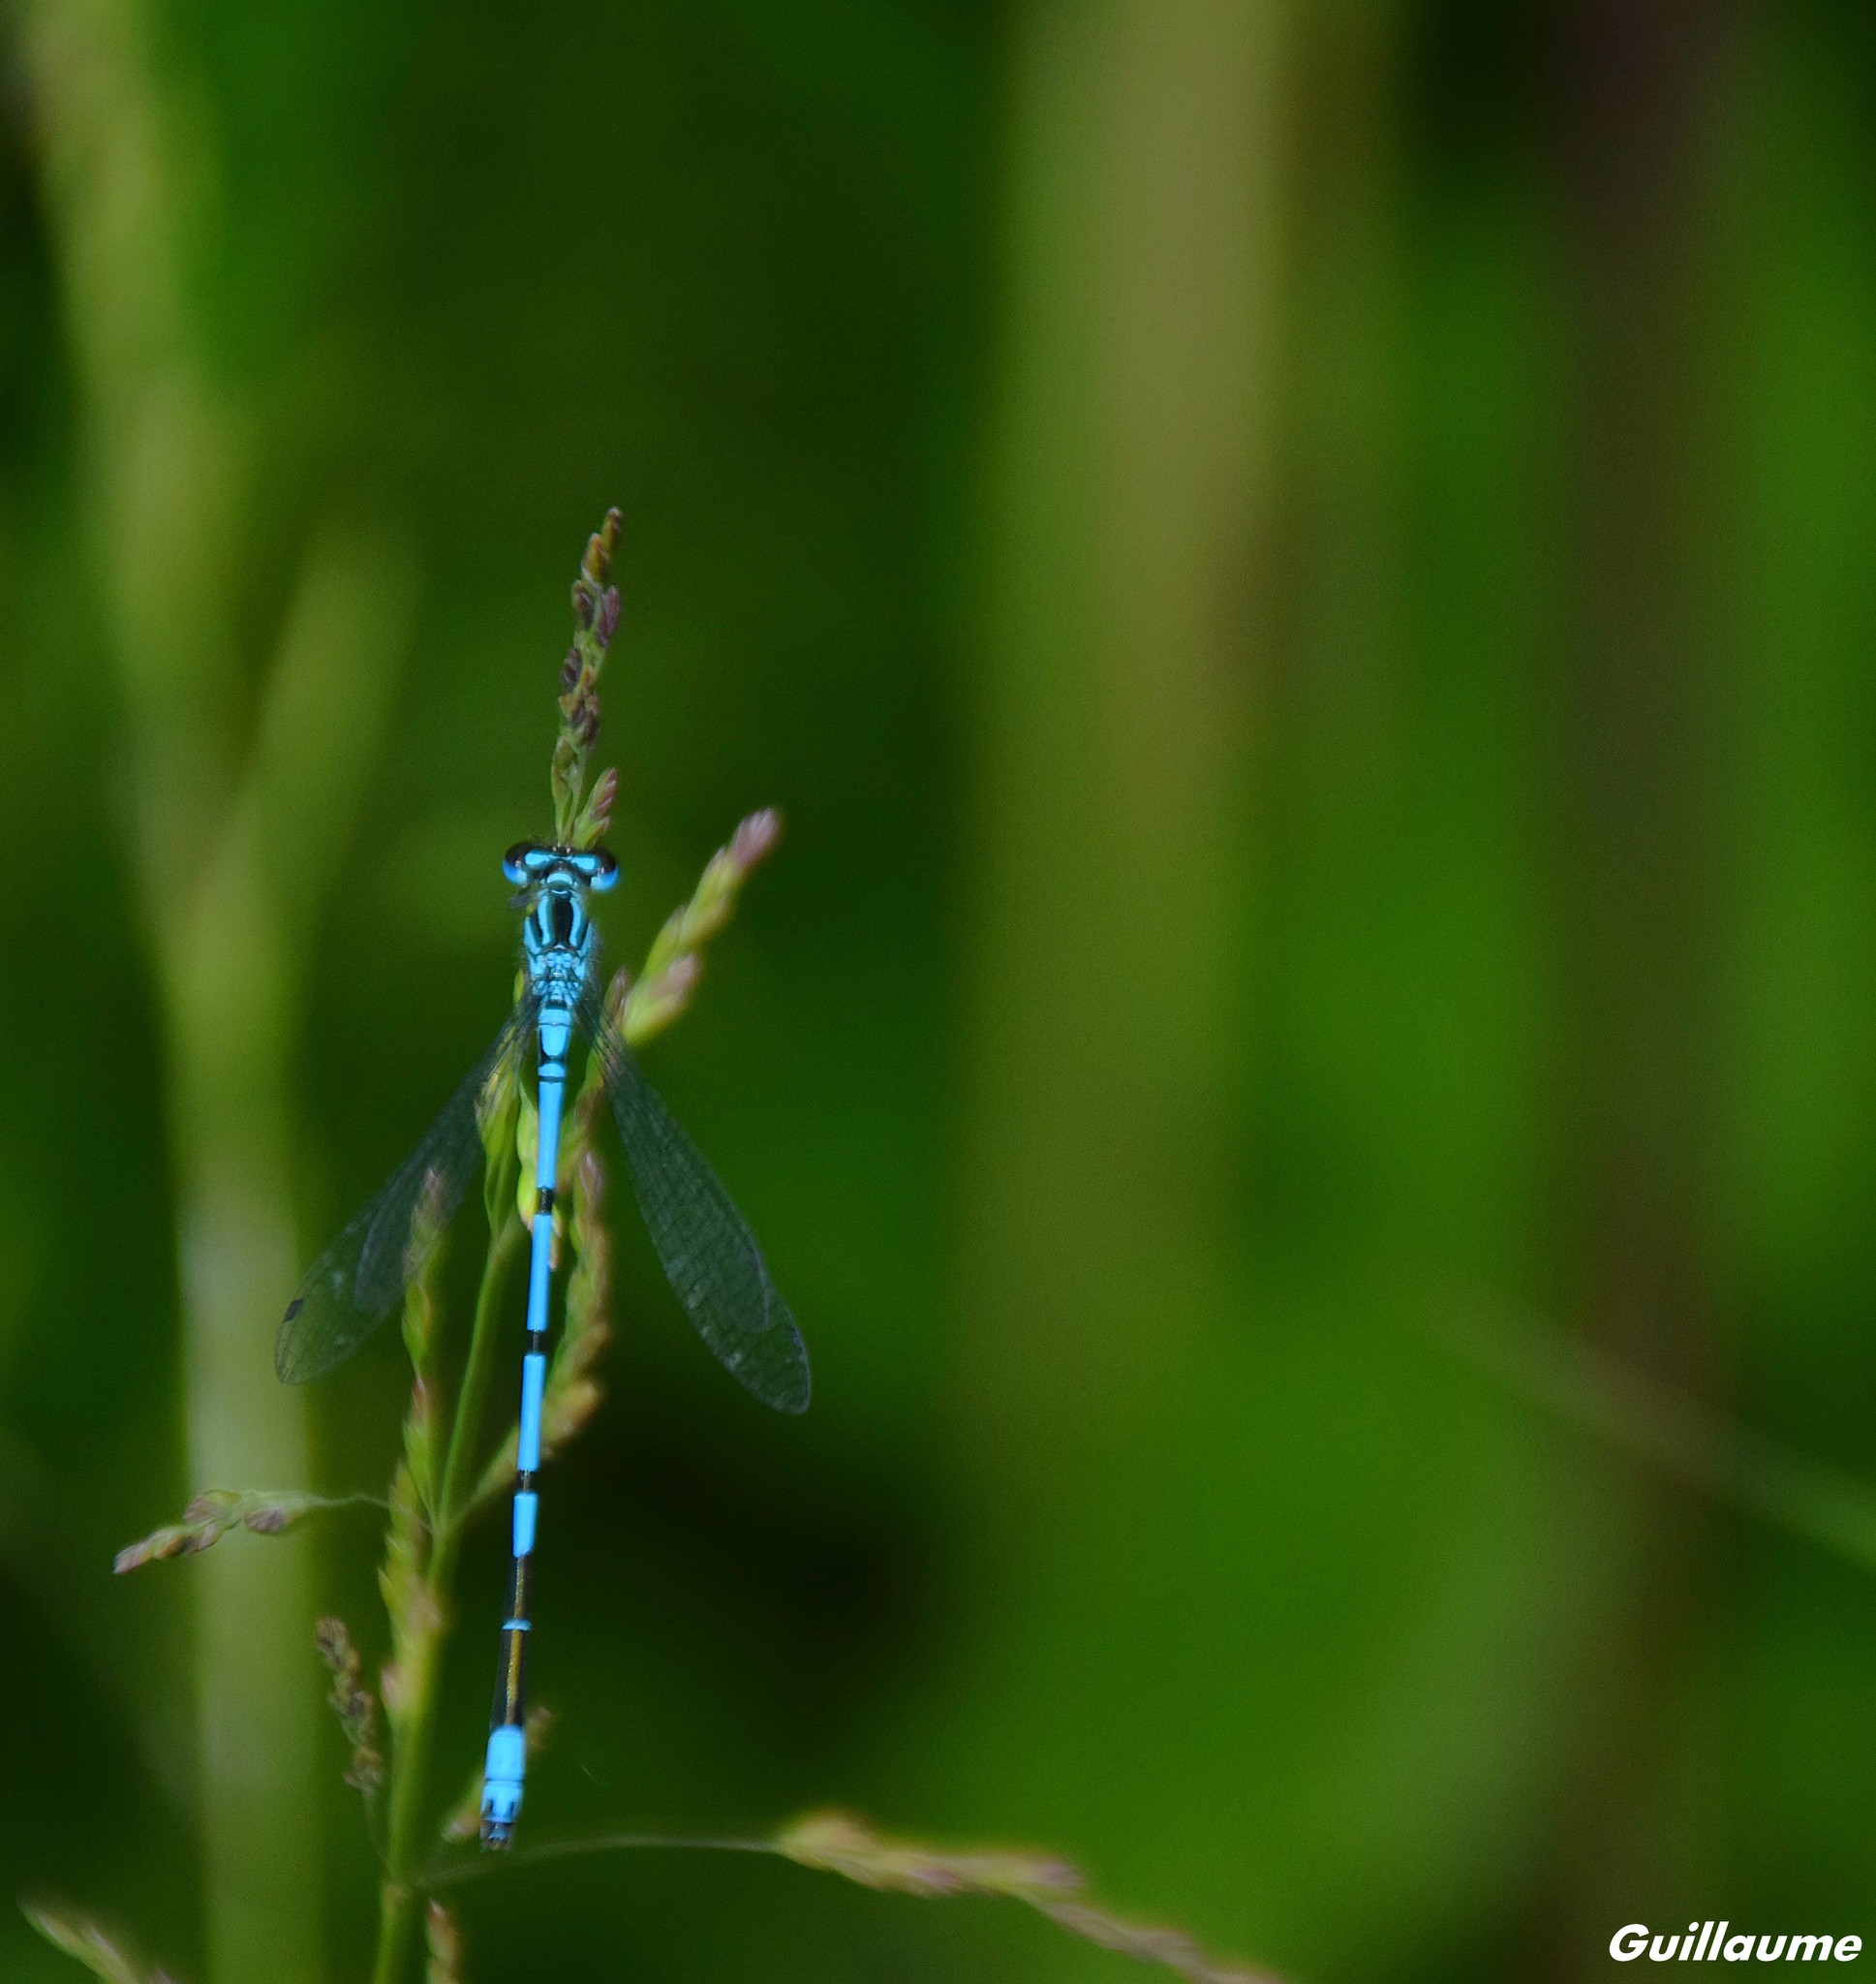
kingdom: Animalia
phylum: Arthropoda
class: Insecta
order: Odonata
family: Coenagrionidae
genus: Coenagrion
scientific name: Coenagrion puella
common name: Azure damselfly
